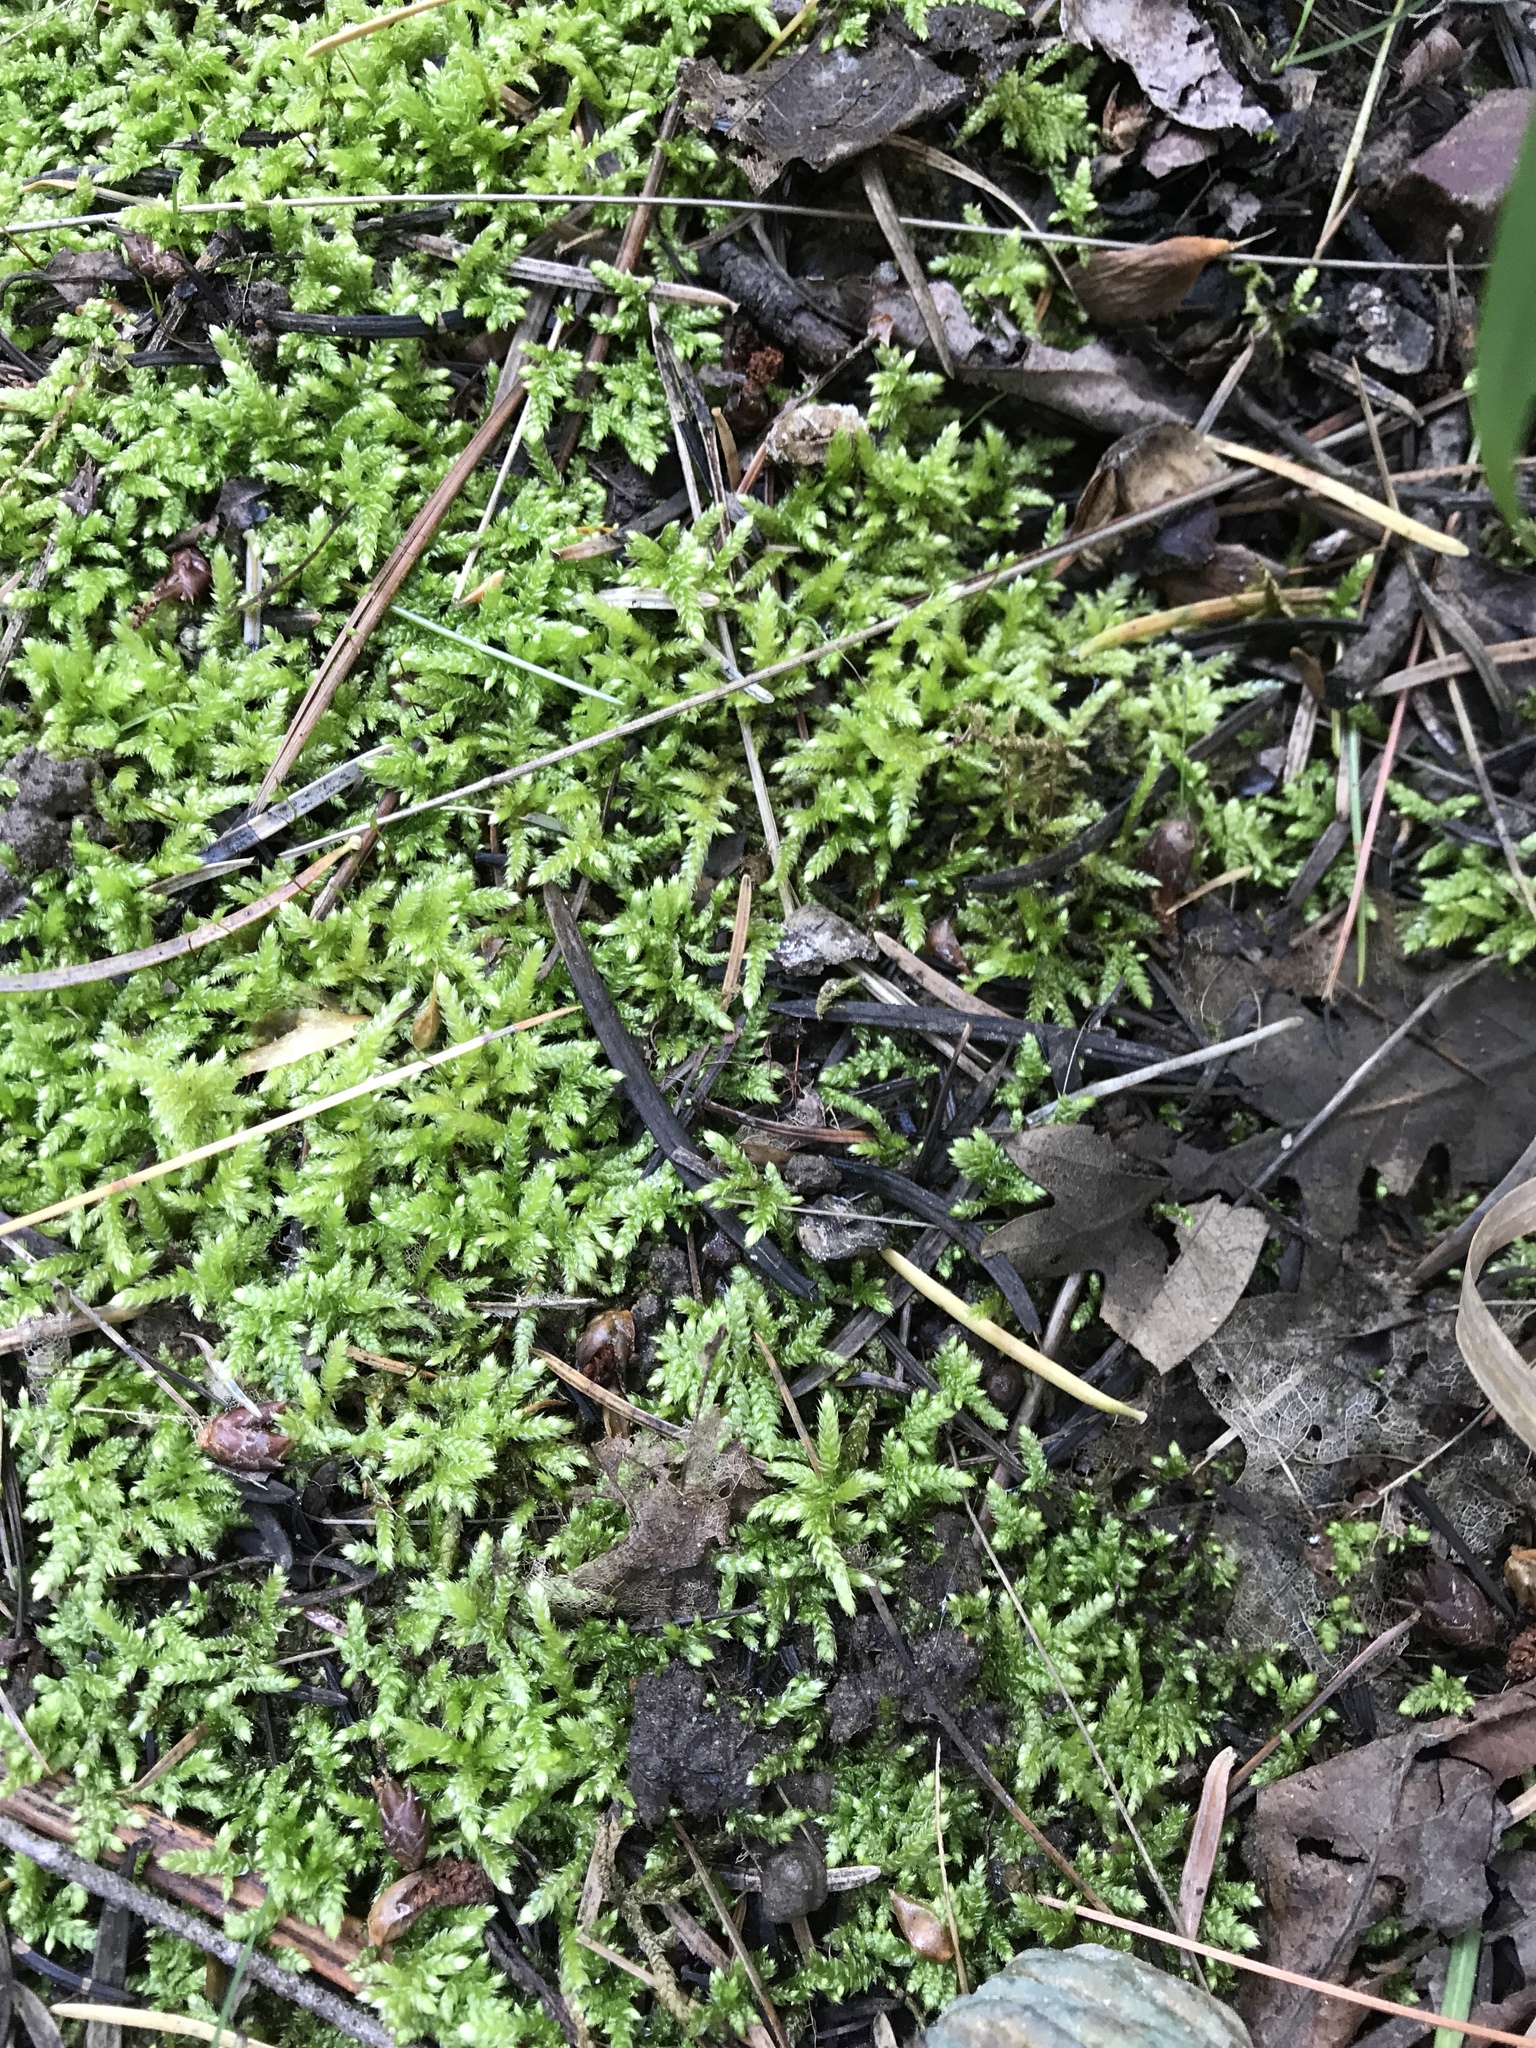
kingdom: Plantae
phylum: Bryophyta
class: Bryopsida
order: Hypnales
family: Rhytidiaceae
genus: Rhytidium
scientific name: Rhytidium rugosum
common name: Wrinkle-leaved moss
